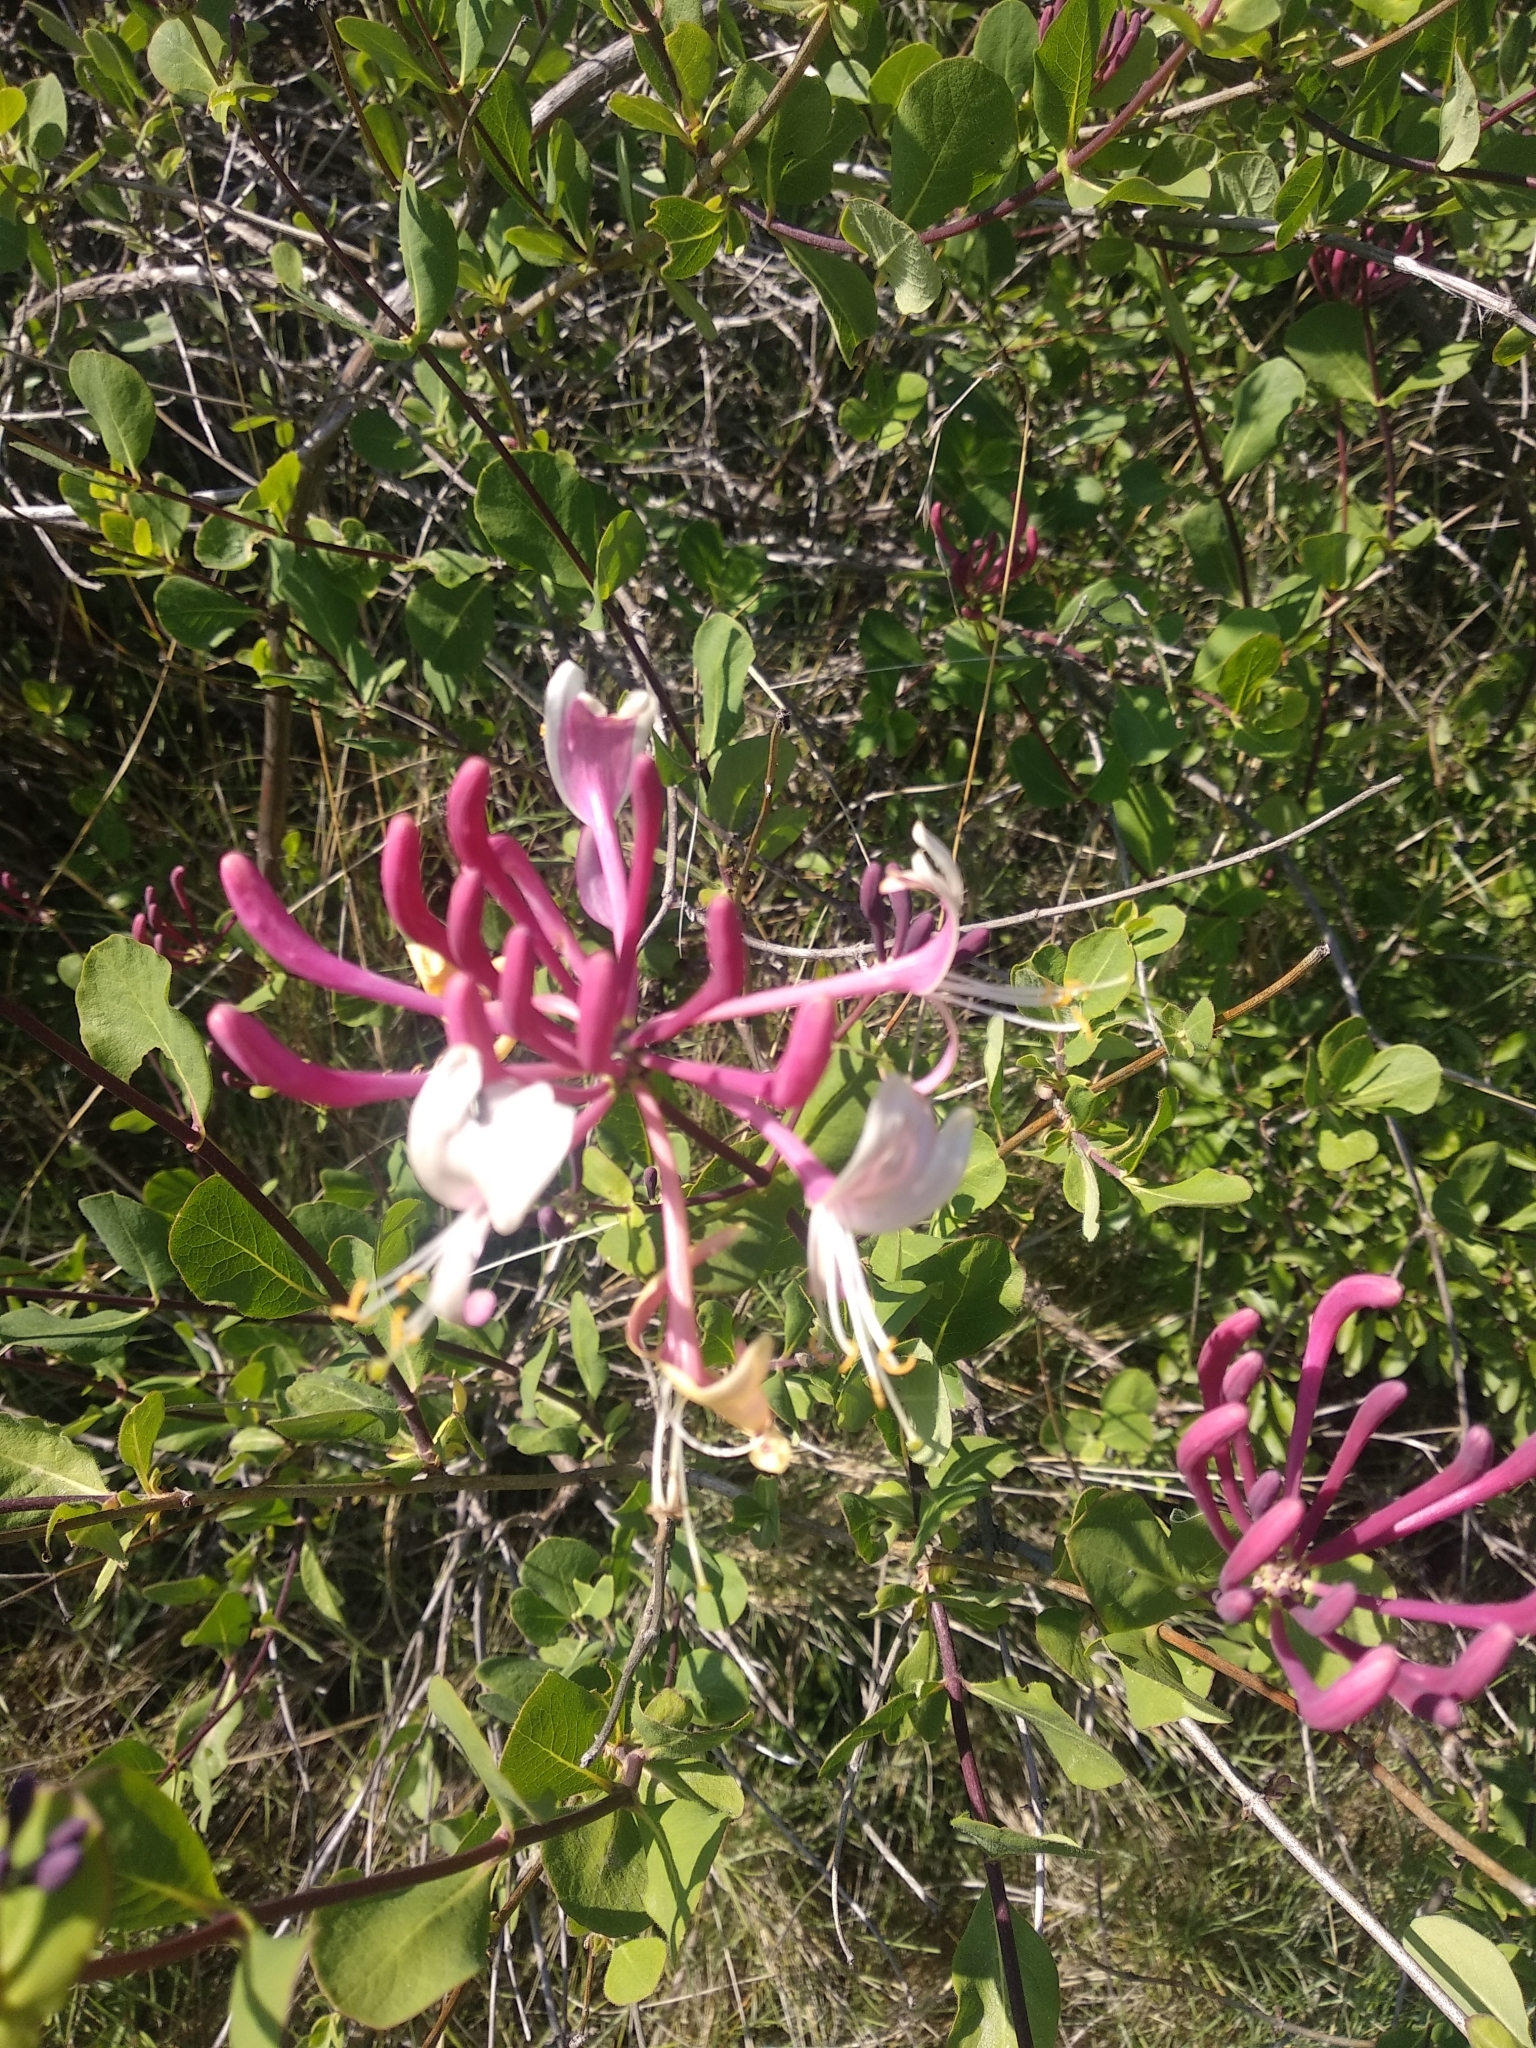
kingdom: Plantae
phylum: Tracheophyta
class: Magnoliopsida
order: Dipsacales
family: Caprifoliaceae
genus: Lonicera
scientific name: Lonicera etrusca
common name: Etruscan honeysuckle
